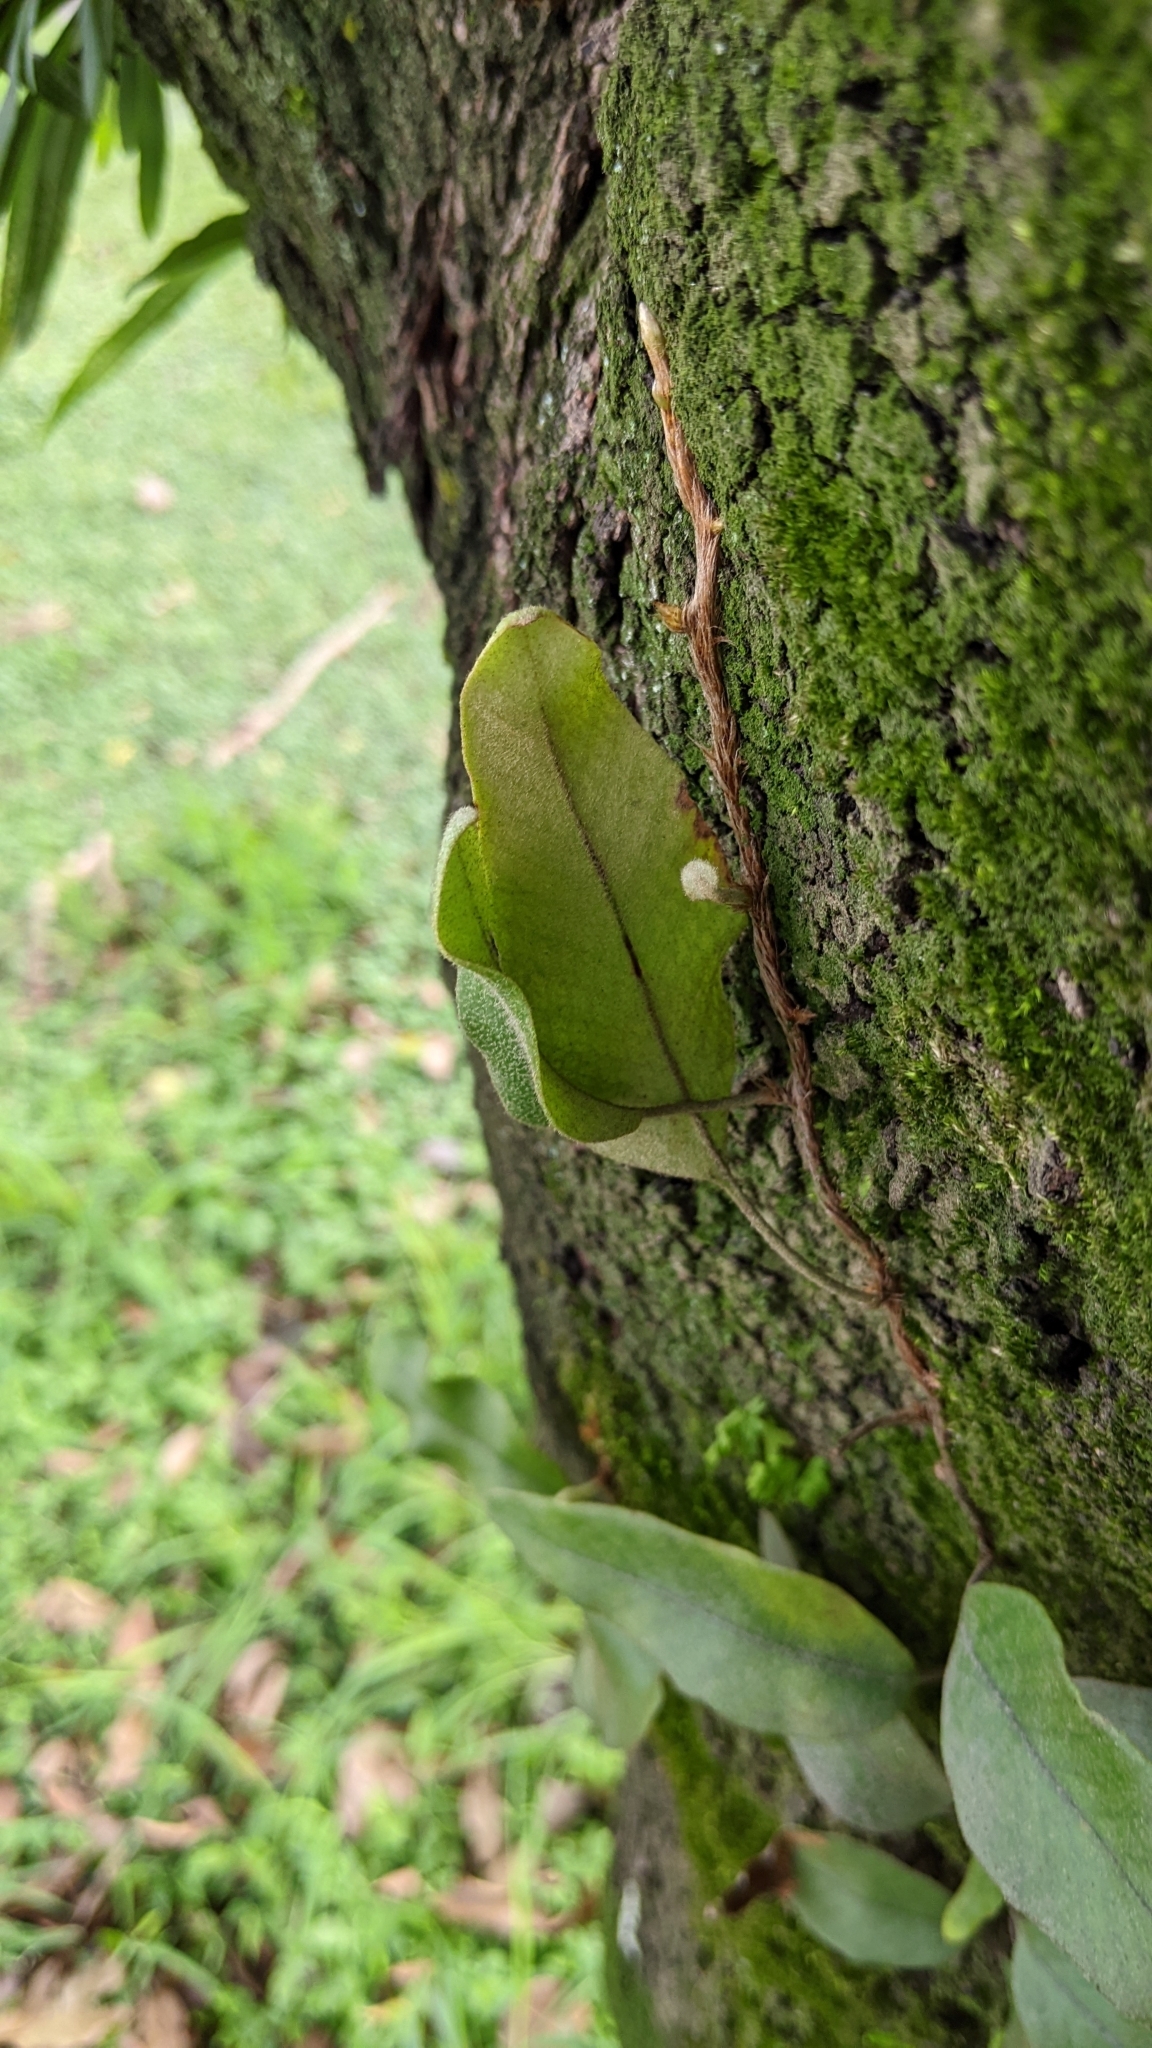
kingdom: Plantae
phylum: Tracheophyta
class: Polypodiopsida
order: Polypodiales
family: Polypodiaceae
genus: Pyrrosia
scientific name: Pyrrosia lingua
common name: Felt fern
